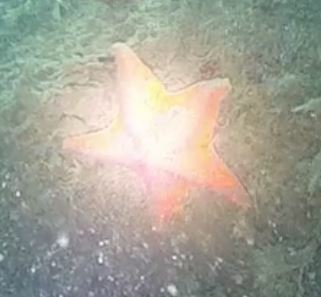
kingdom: Animalia
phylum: Echinodermata
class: Asteroidea
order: Valvatida
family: Asterinidae
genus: Patiria
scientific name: Patiria miniata
